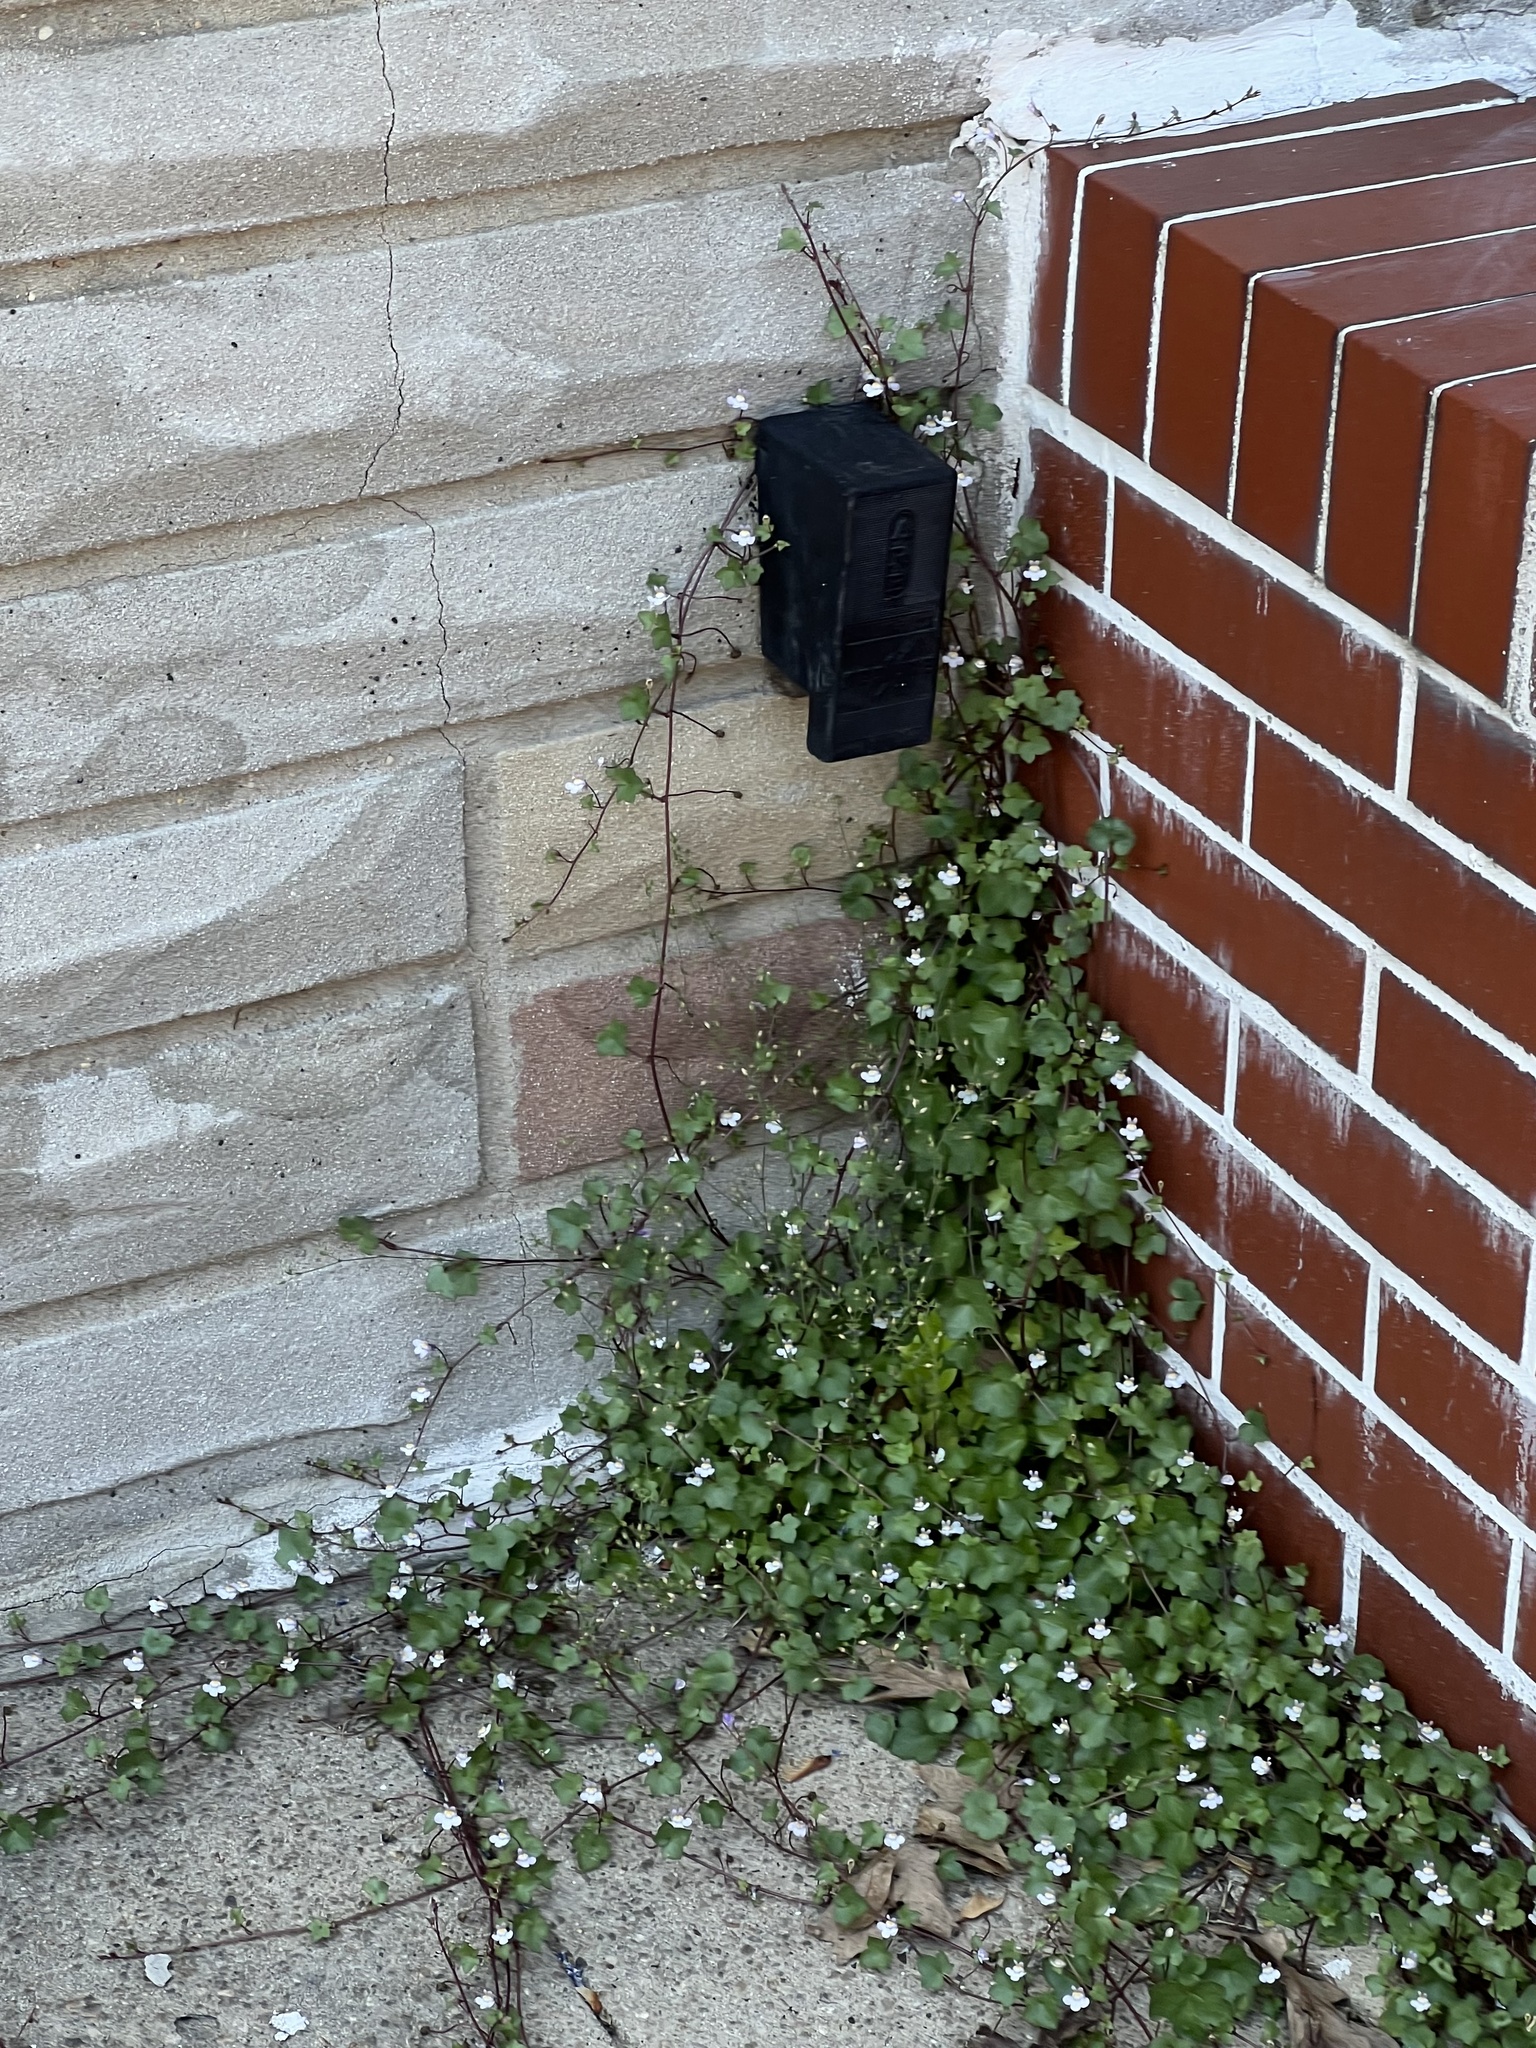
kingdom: Plantae
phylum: Tracheophyta
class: Magnoliopsida
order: Lamiales
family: Plantaginaceae
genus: Cymbalaria
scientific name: Cymbalaria muralis
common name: Ivy-leaved toadflax
